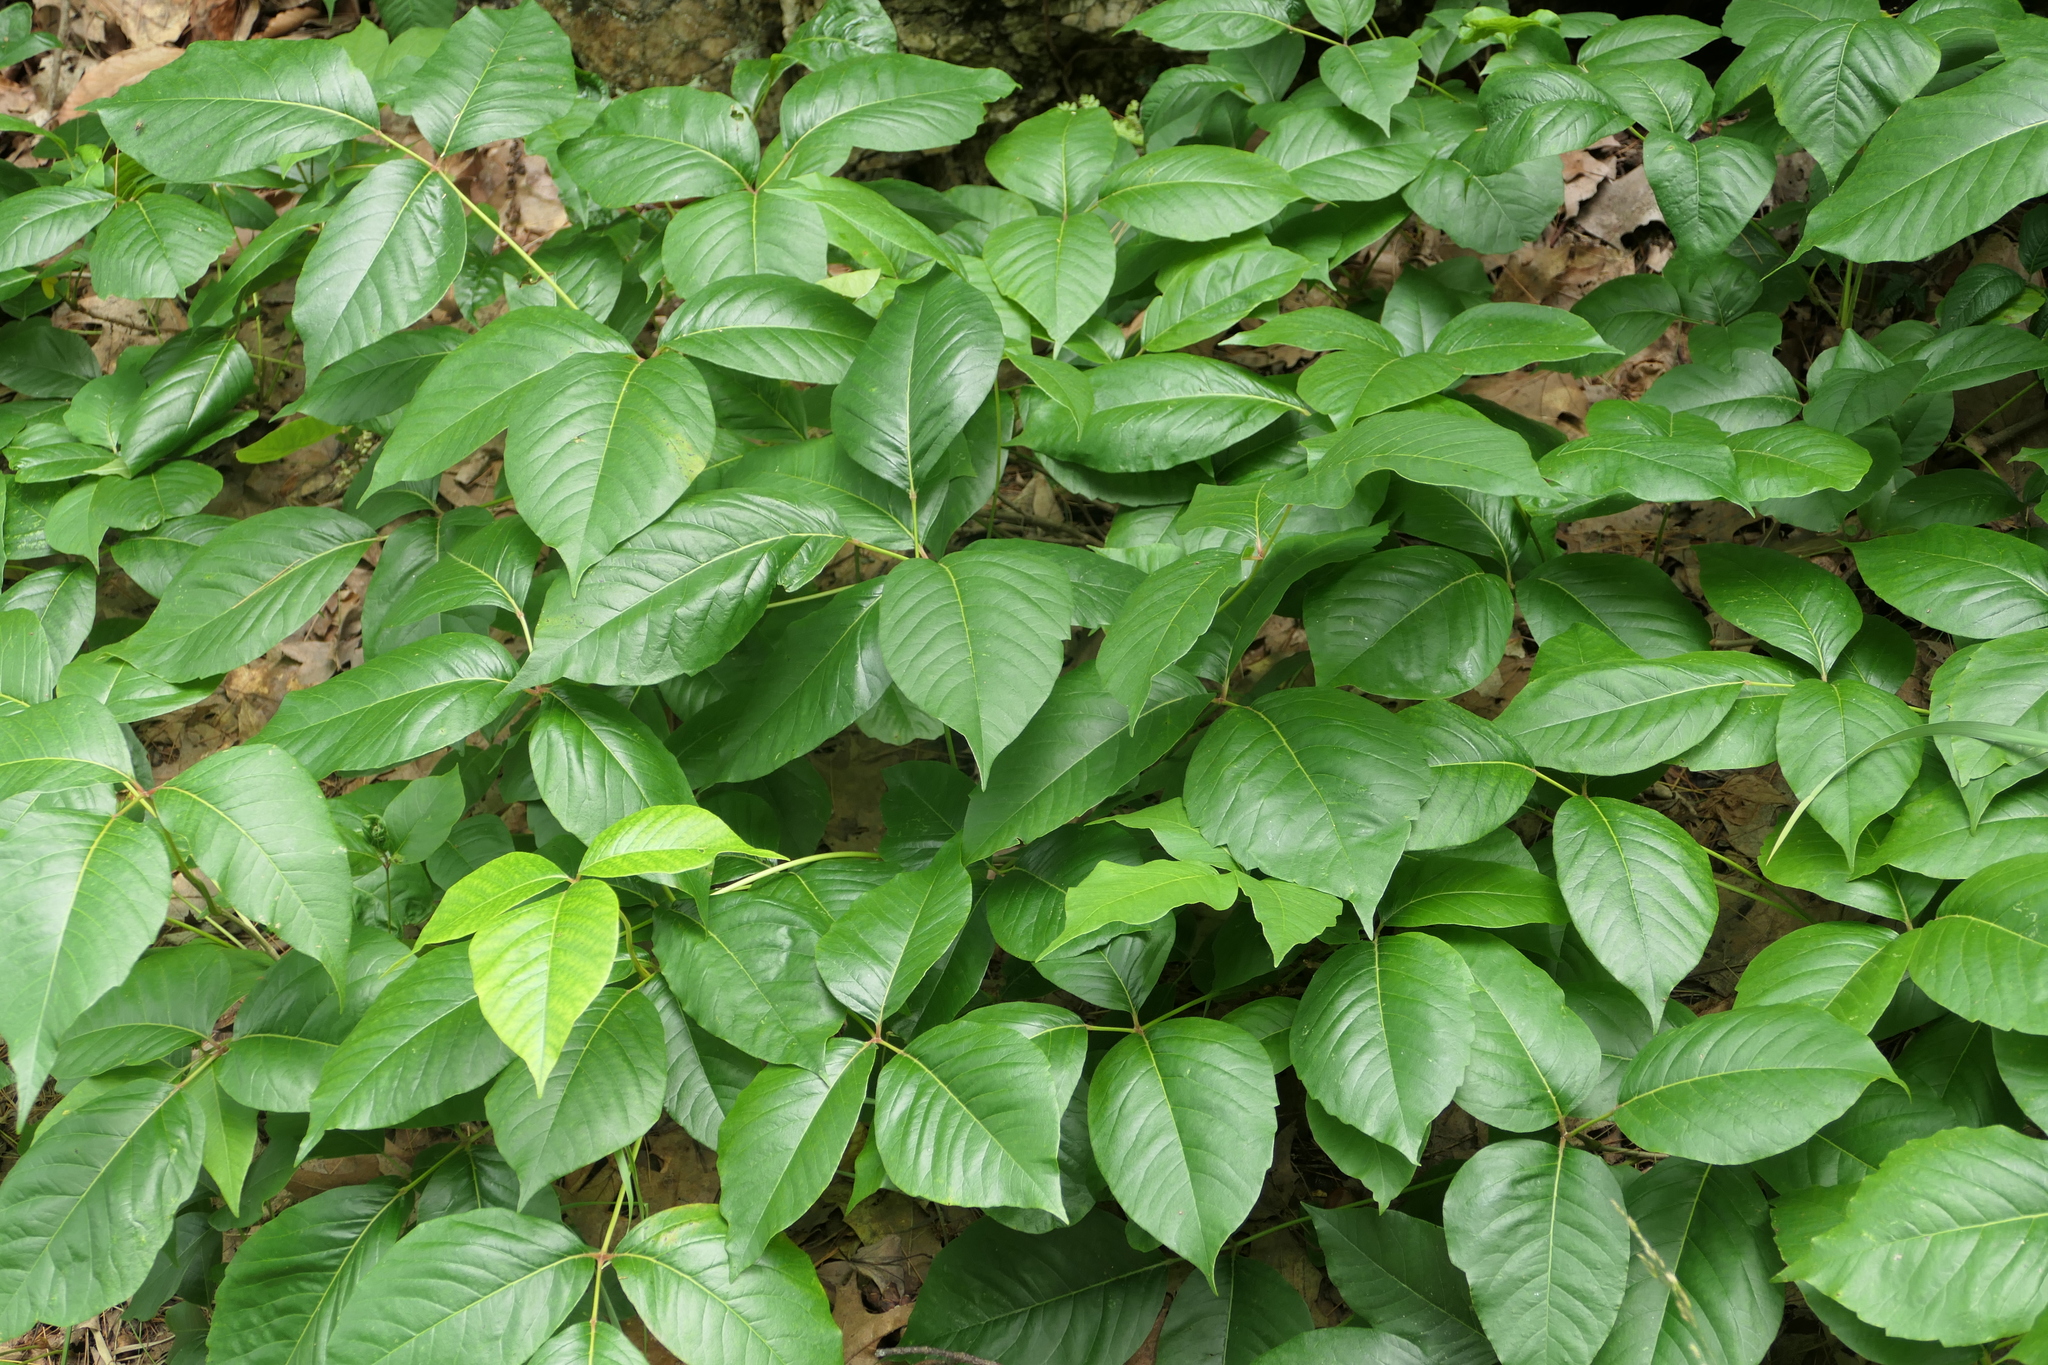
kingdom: Plantae
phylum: Tracheophyta
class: Magnoliopsida
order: Sapindales
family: Anacardiaceae
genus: Toxicodendron
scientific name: Toxicodendron radicans
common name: Poison ivy
